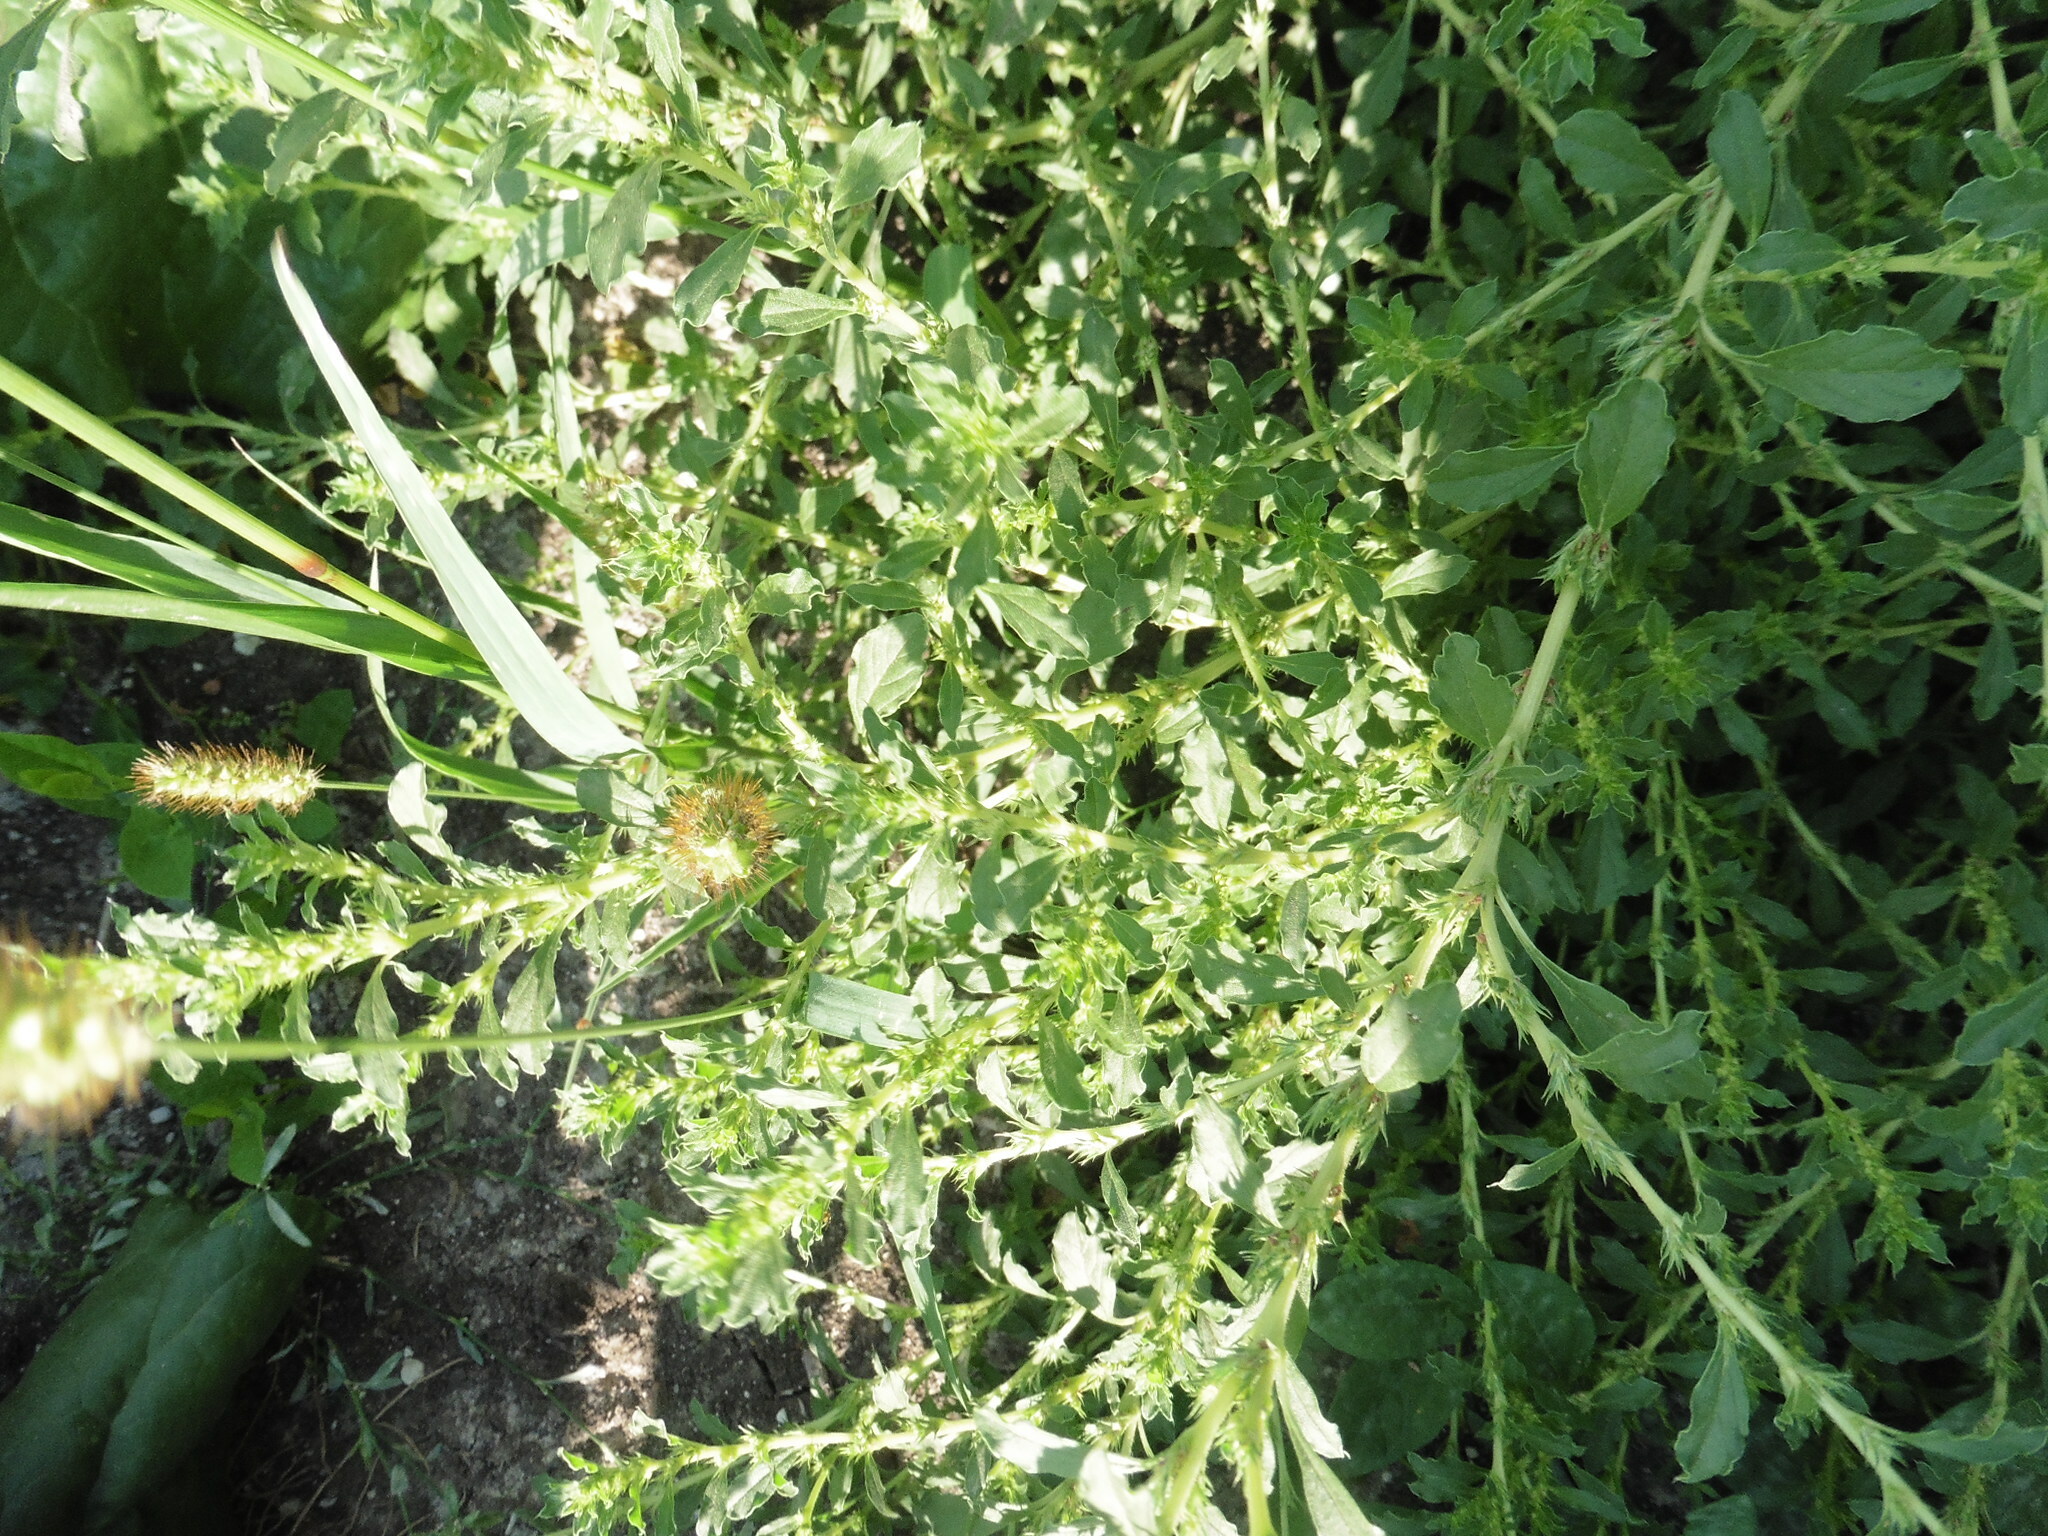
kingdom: Plantae
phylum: Tracheophyta
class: Magnoliopsida
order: Caryophyllales
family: Amaranthaceae
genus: Amaranthus
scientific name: Amaranthus albus
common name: White pigweed
